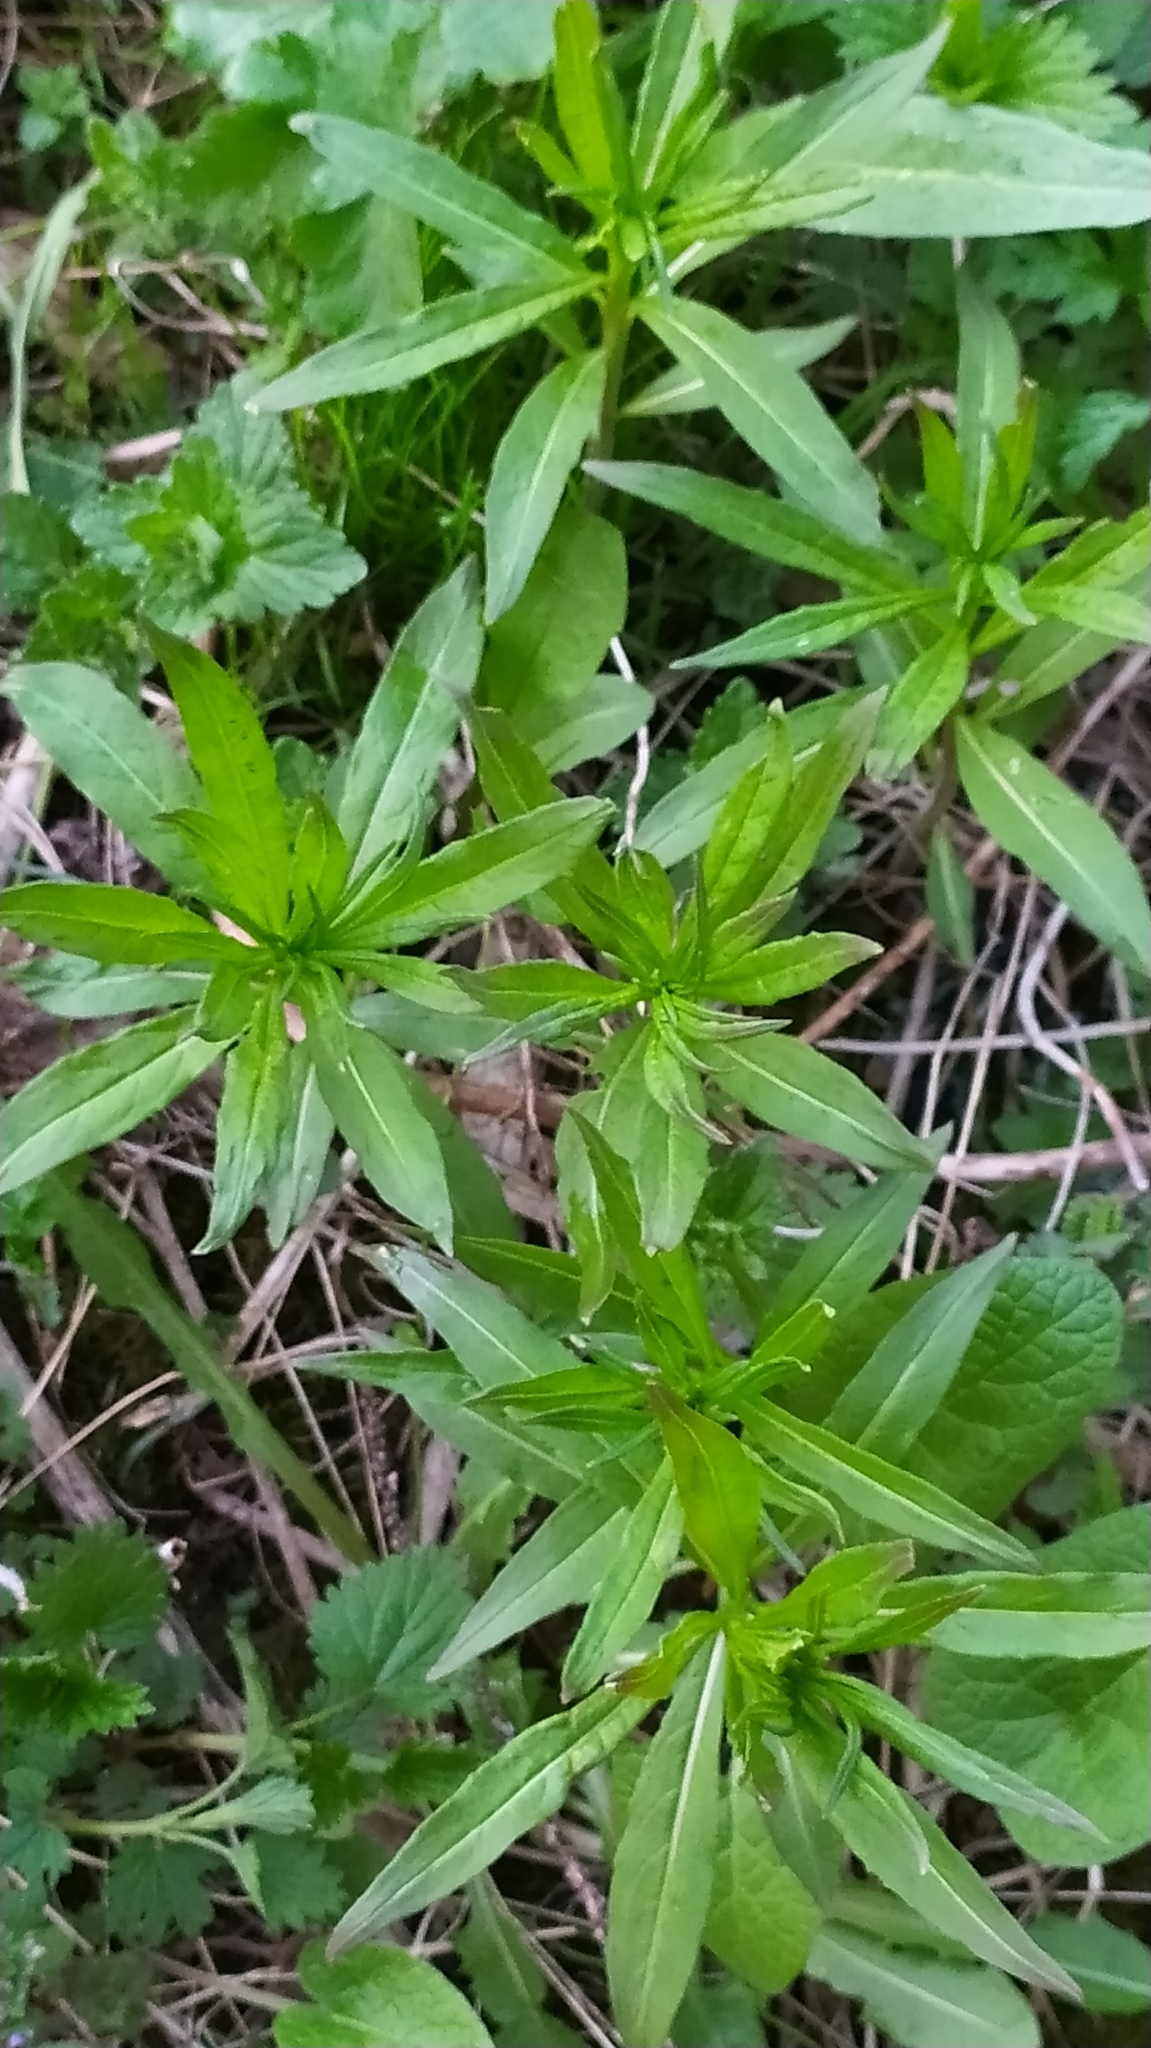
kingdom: Plantae
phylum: Tracheophyta
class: Magnoliopsida
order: Myrtales
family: Onagraceae
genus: Chamaenerion
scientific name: Chamaenerion angustifolium
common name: Fireweed
